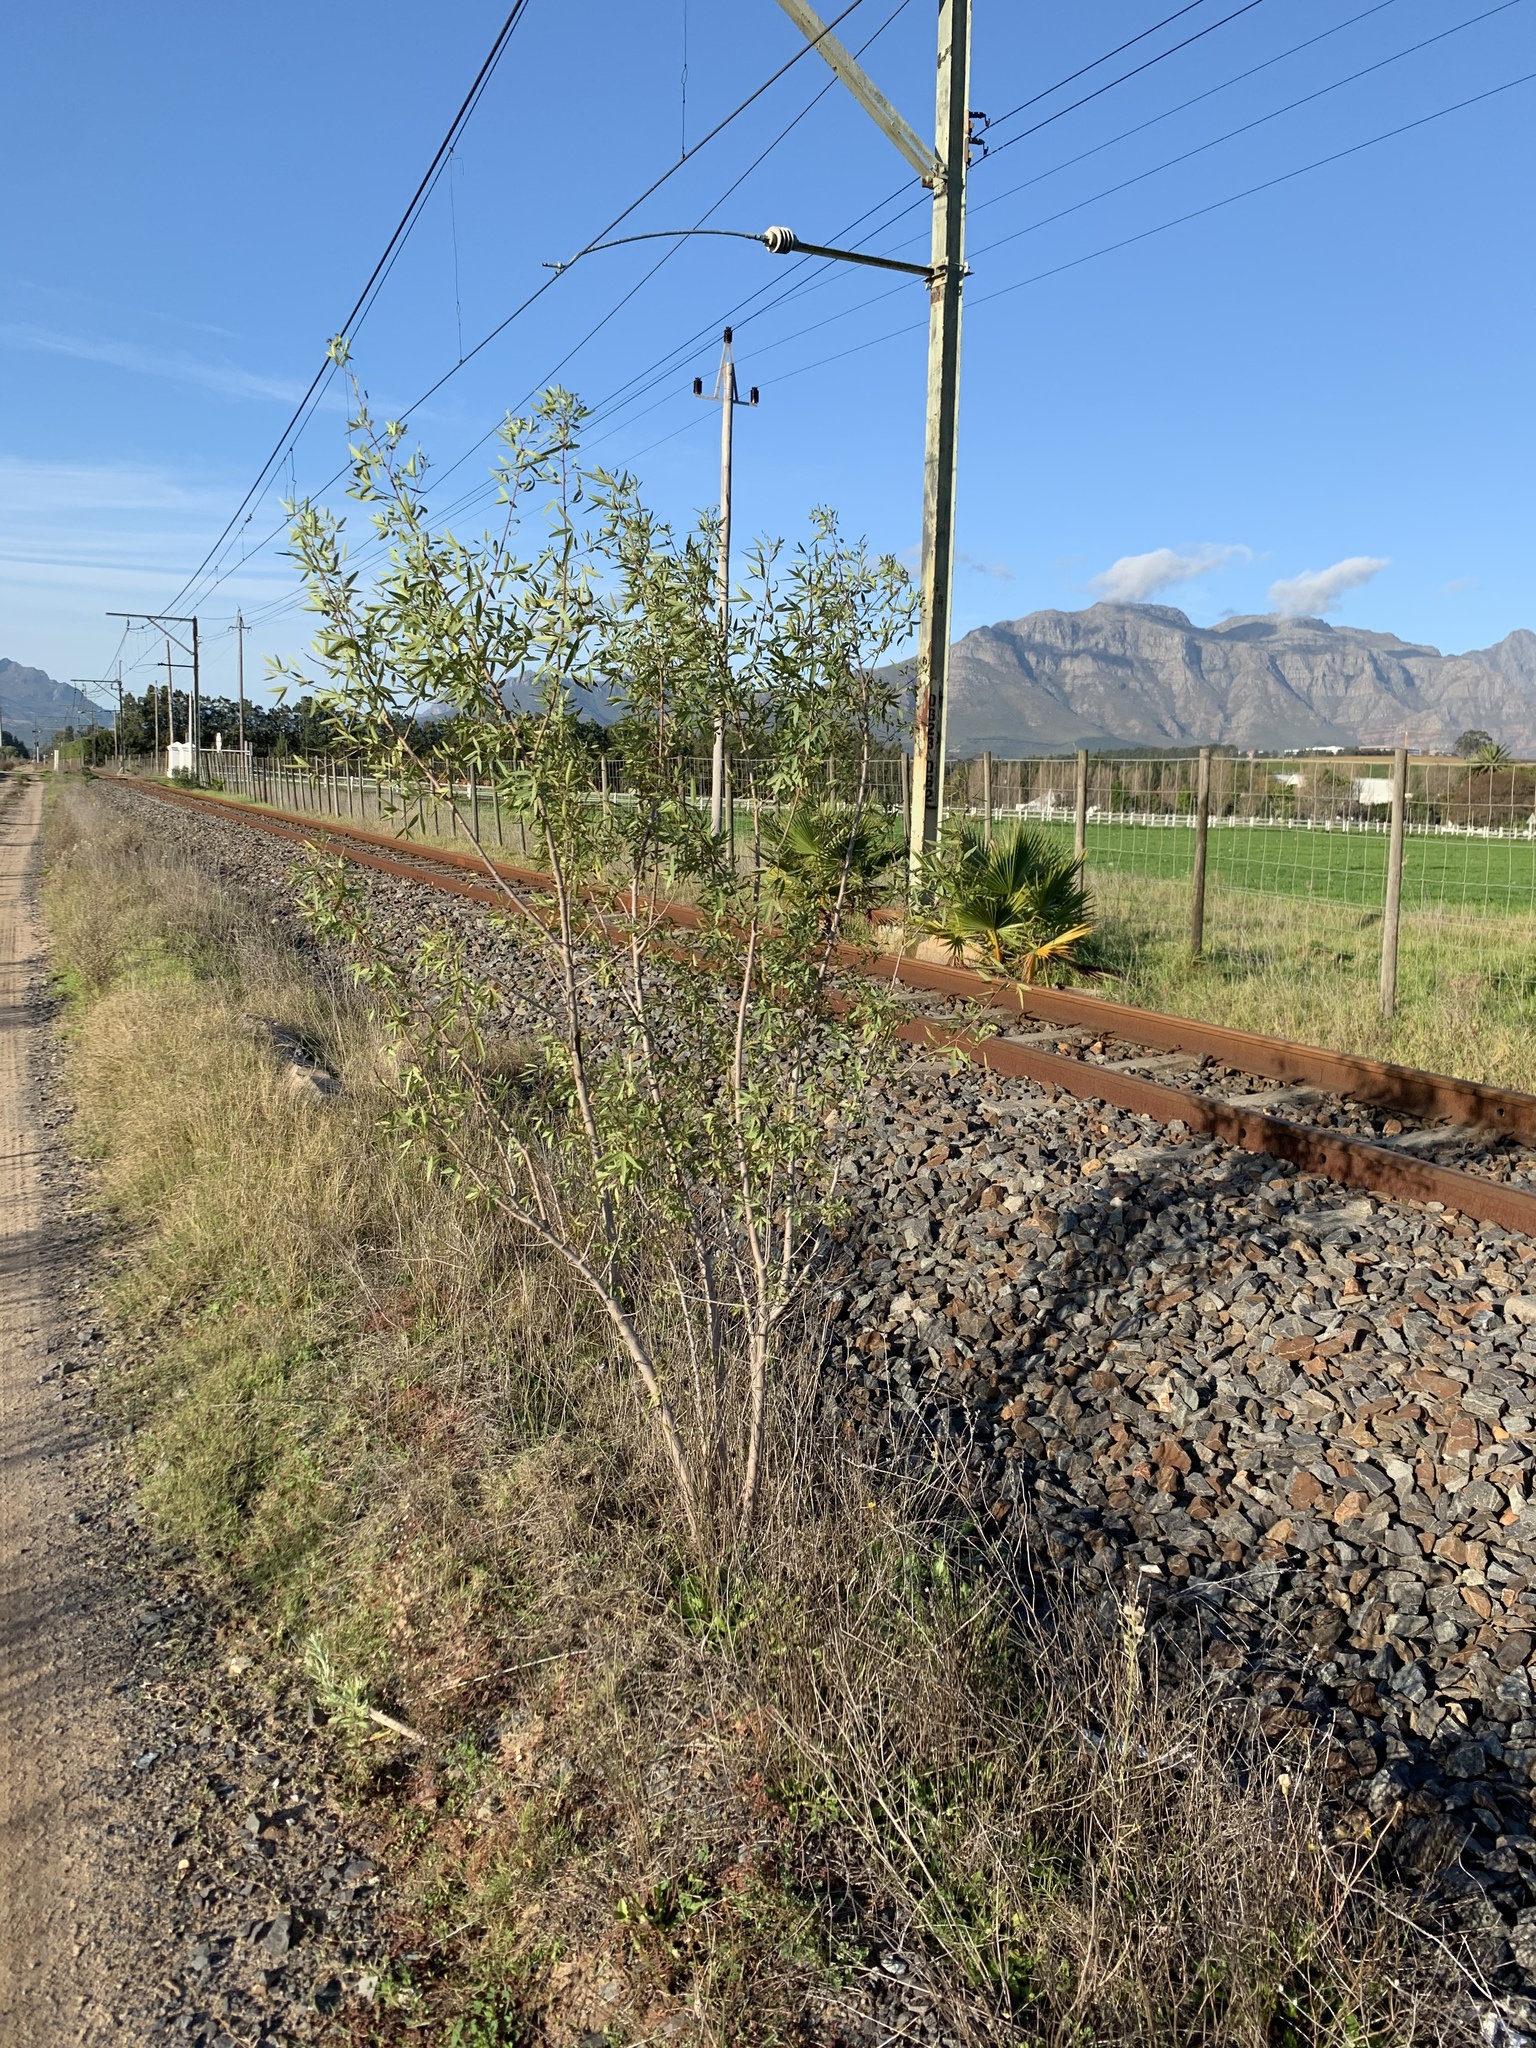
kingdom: Plantae
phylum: Tracheophyta
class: Magnoliopsida
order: Sapindales
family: Anacardiaceae
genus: Searsia
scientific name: Searsia pendulina
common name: White karee
